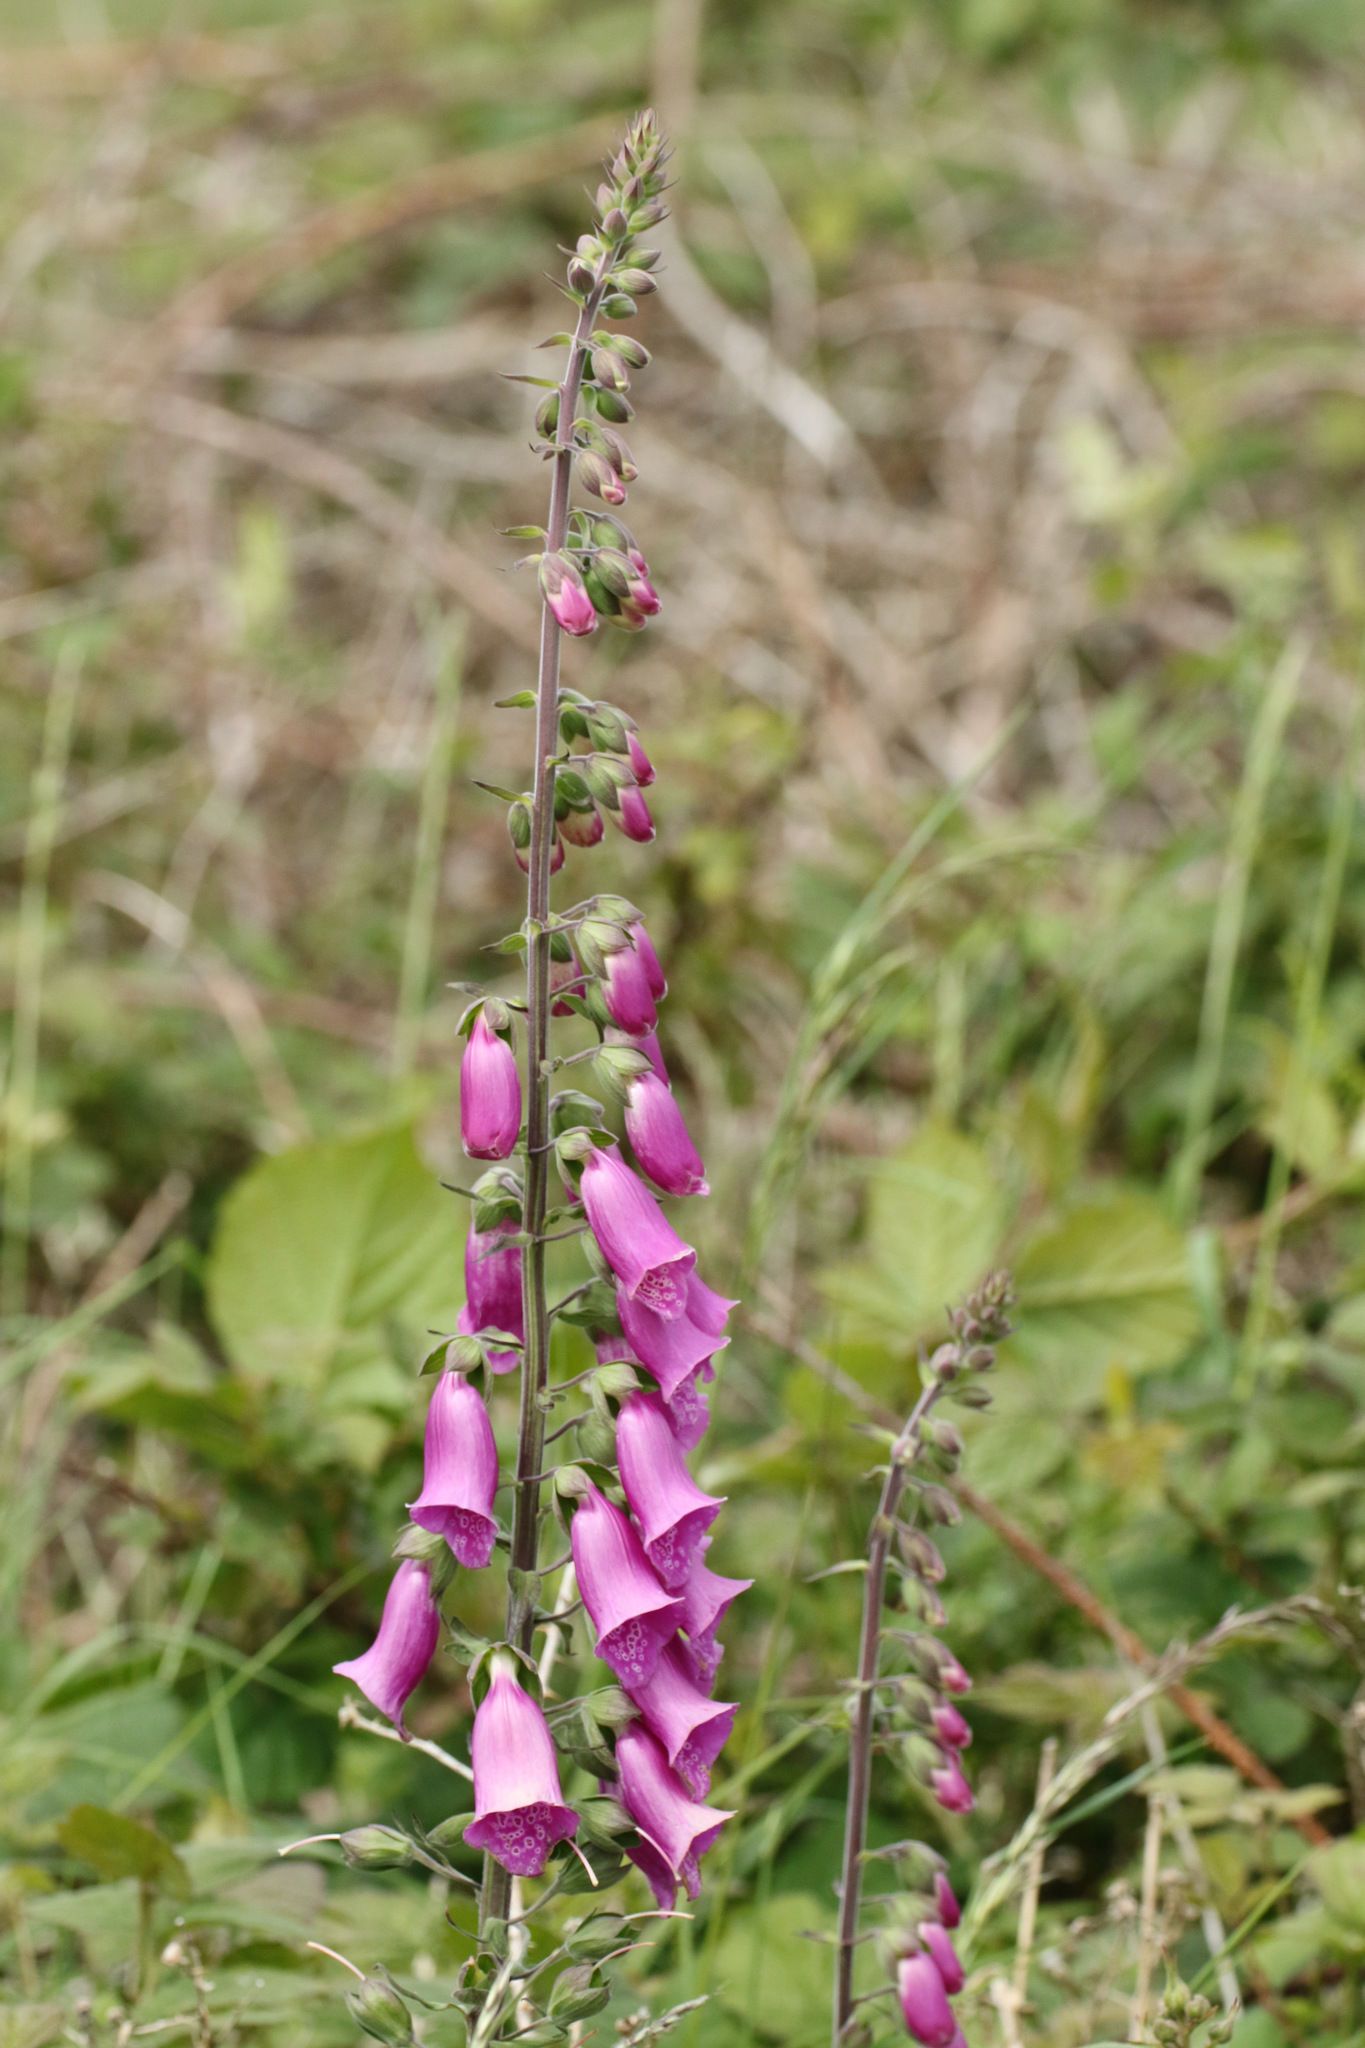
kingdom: Plantae
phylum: Tracheophyta
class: Magnoliopsida
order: Lamiales
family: Plantaginaceae
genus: Digitalis
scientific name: Digitalis purpurea
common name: Foxglove
